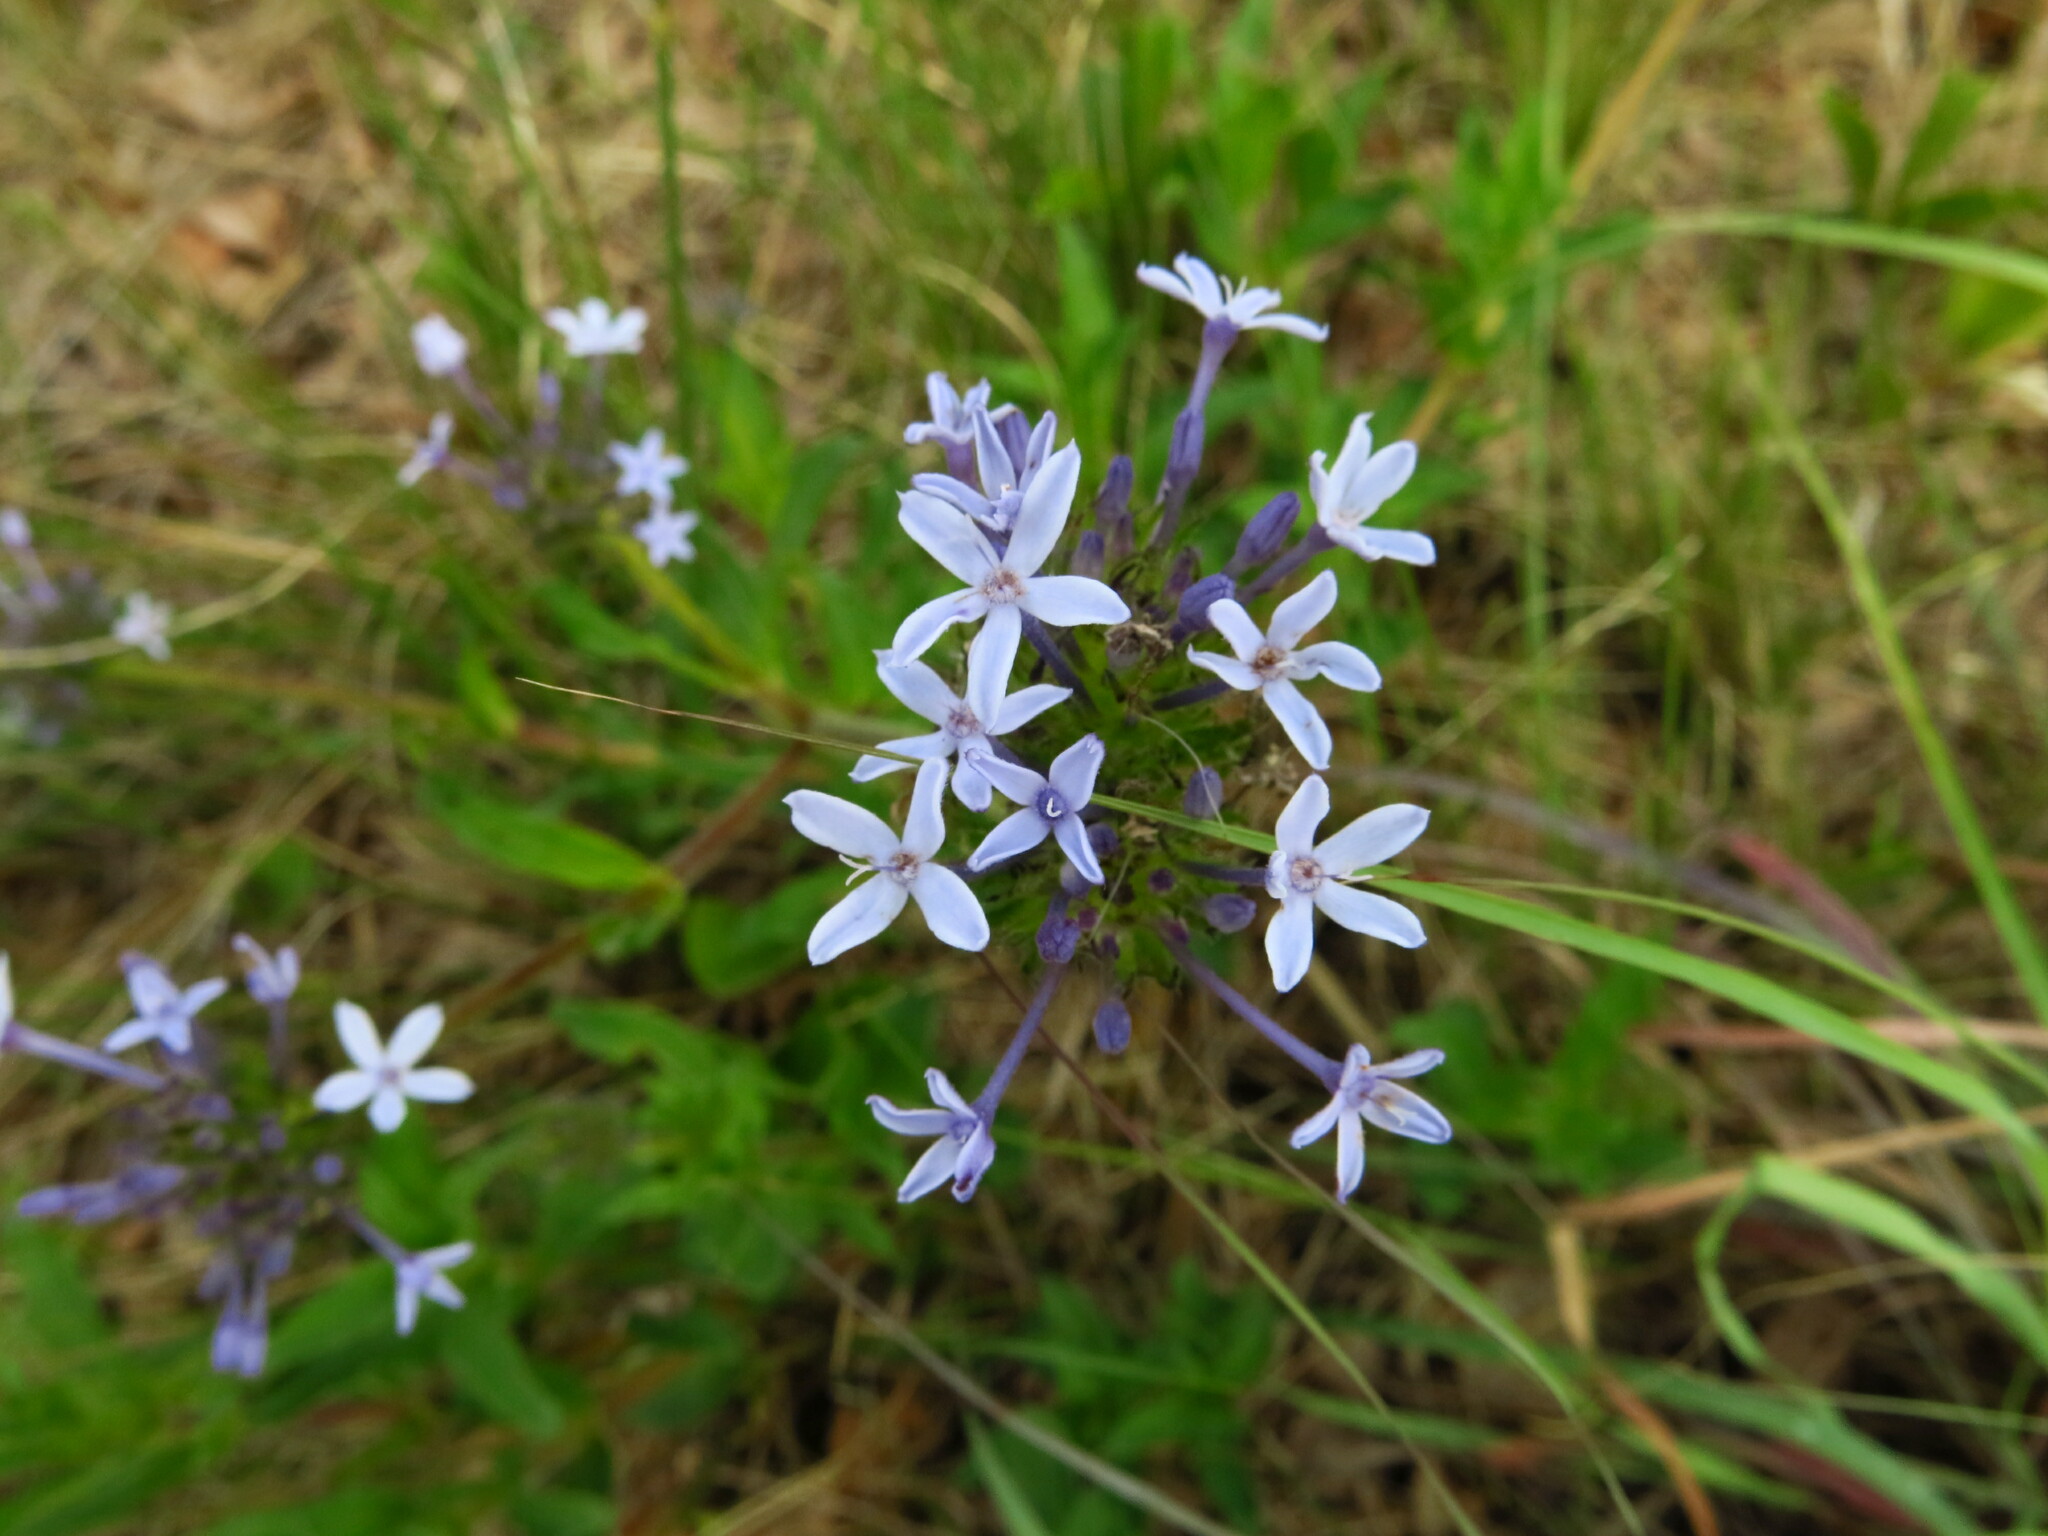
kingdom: Plantae
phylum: Tracheophyta
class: Magnoliopsida
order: Gentianales
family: Rubiaceae
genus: Pentanisia
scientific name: Pentanisia prunelloides
